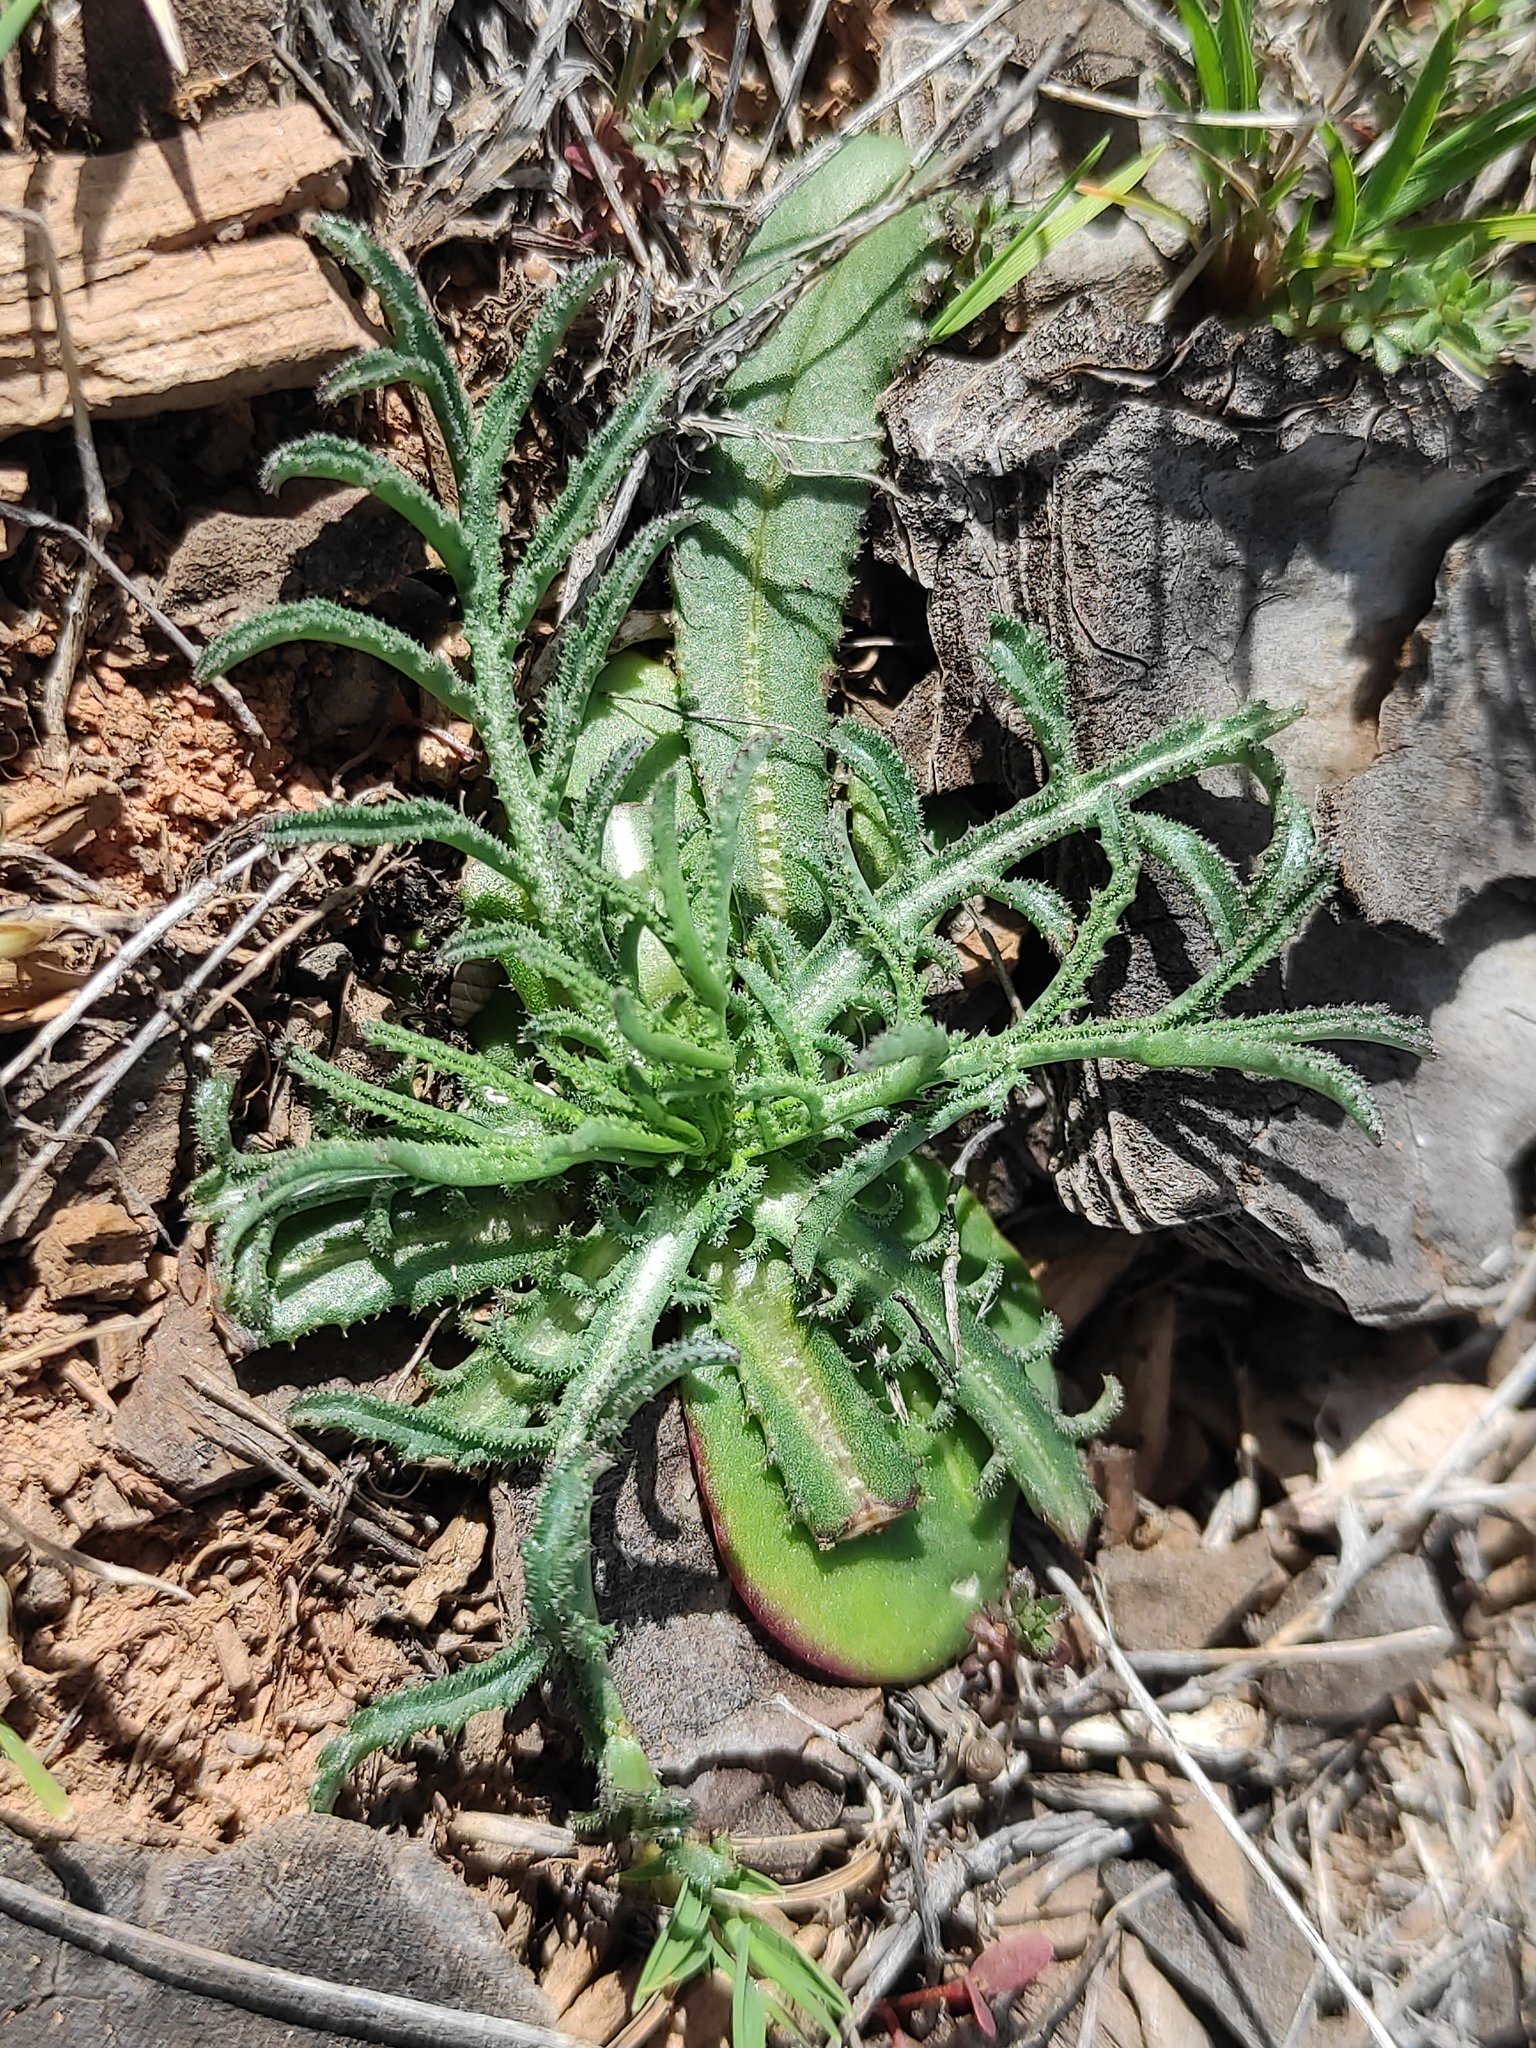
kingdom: Plantae
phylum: Tracheophyta
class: Magnoliopsida
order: Asterales
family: Asteraceae
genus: Crupina
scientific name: Crupina vulgaris
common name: Common crupina
